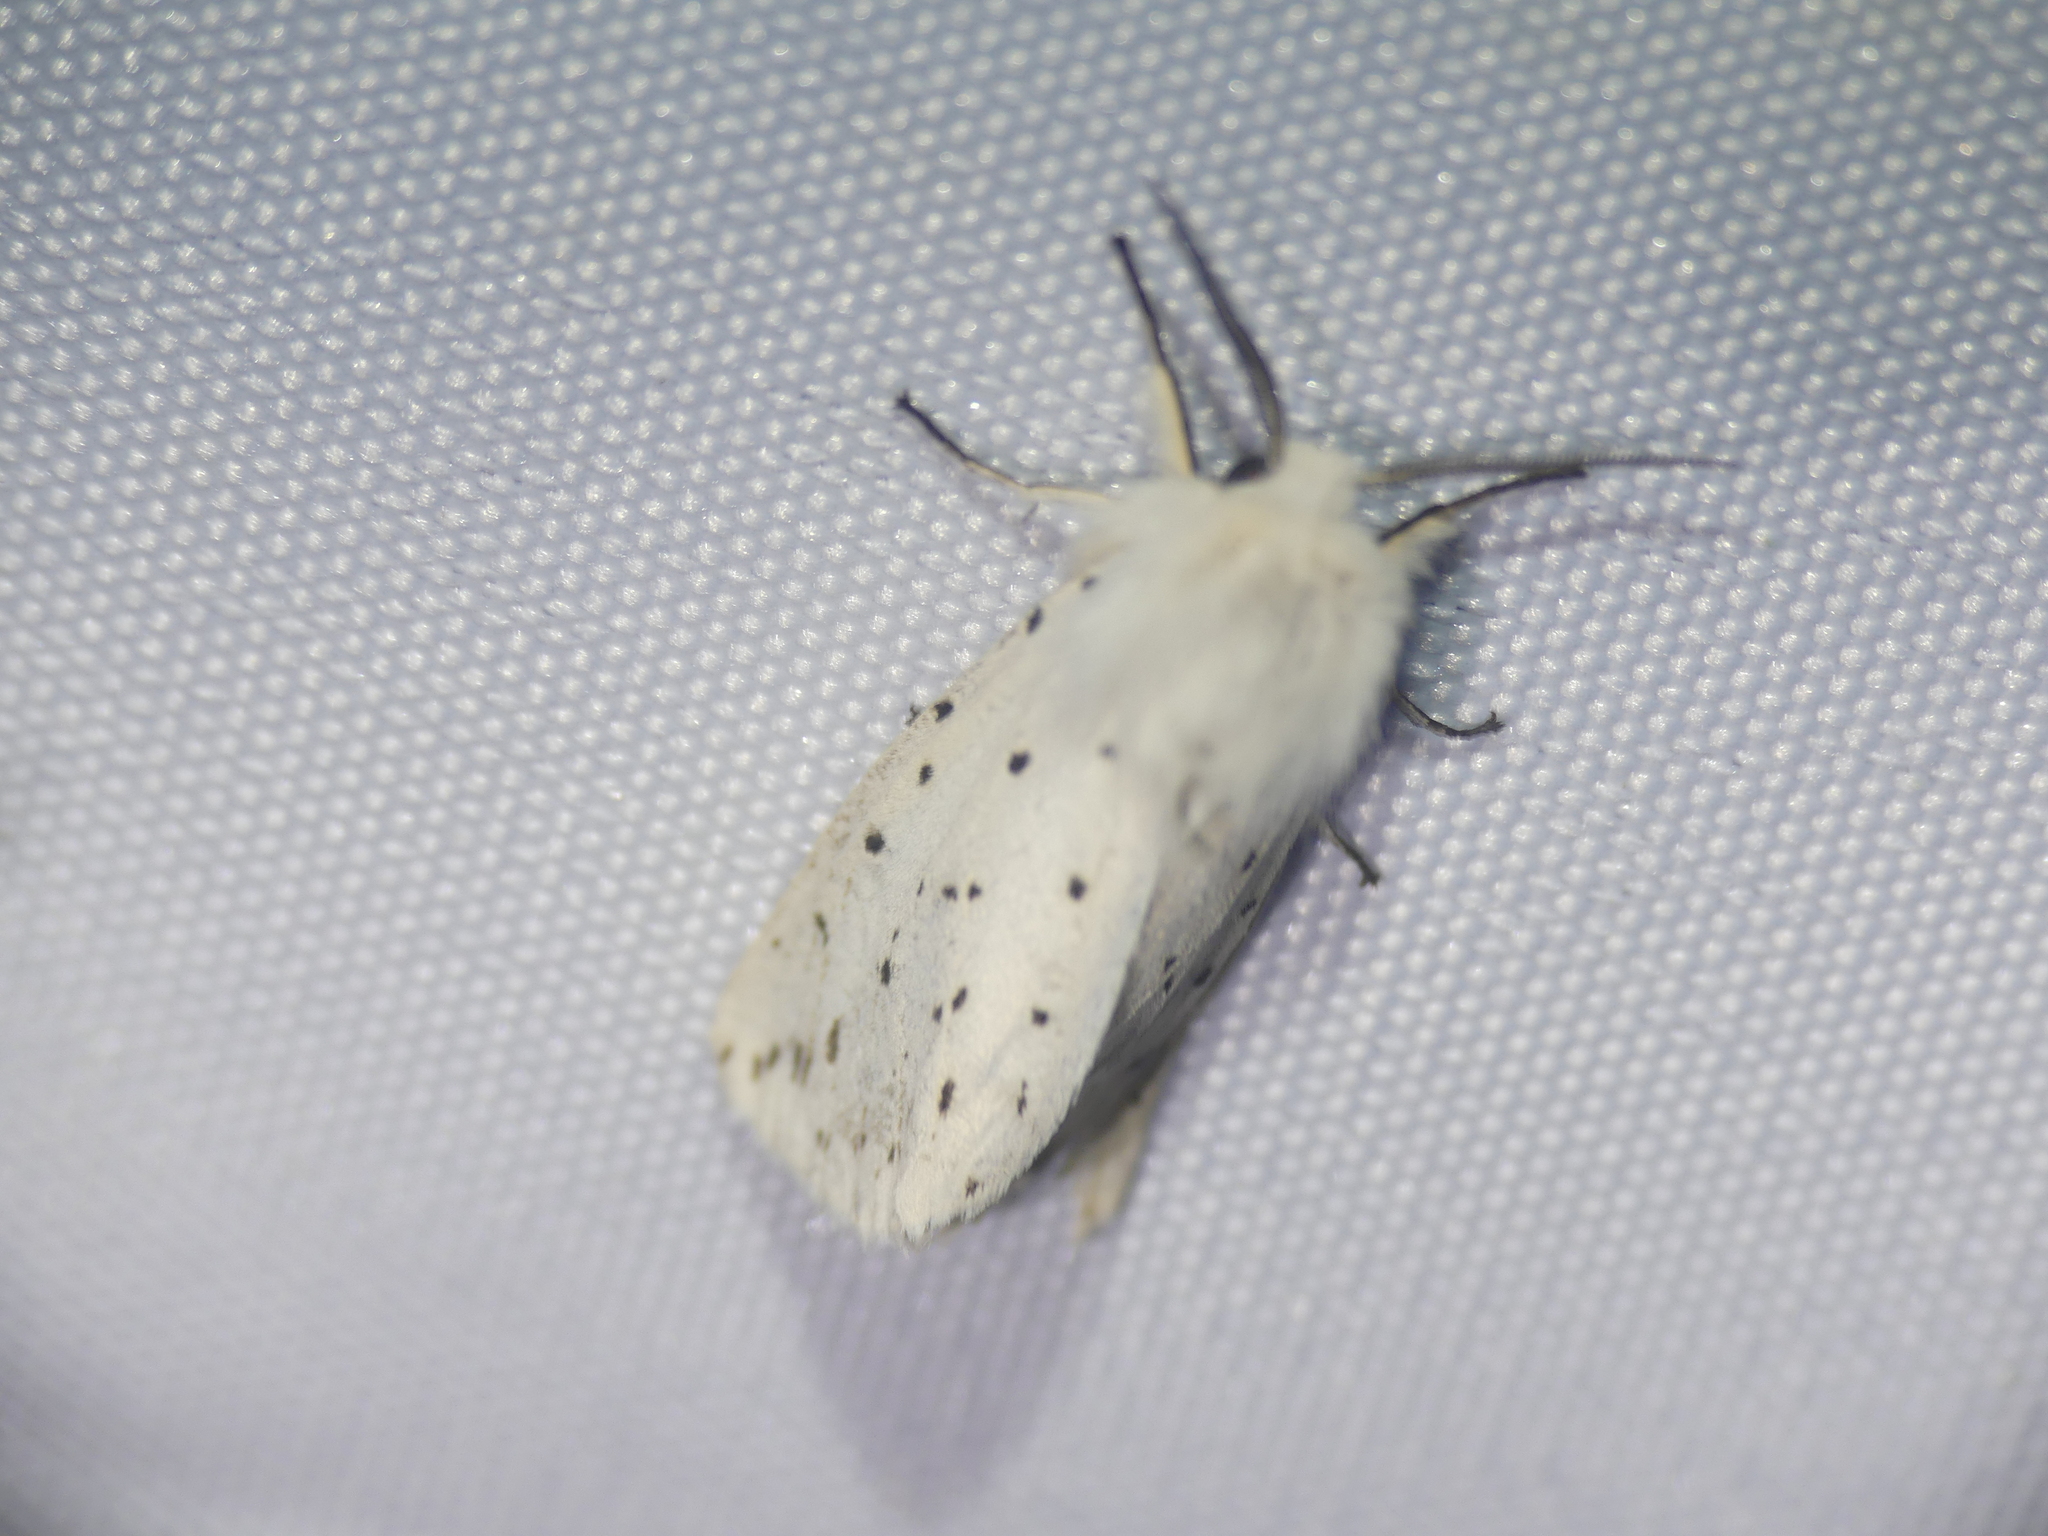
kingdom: Animalia
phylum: Arthropoda
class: Insecta
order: Lepidoptera
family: Erebidae
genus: Spilosoma
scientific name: Spilosoma lubricipeda
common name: White ermine
